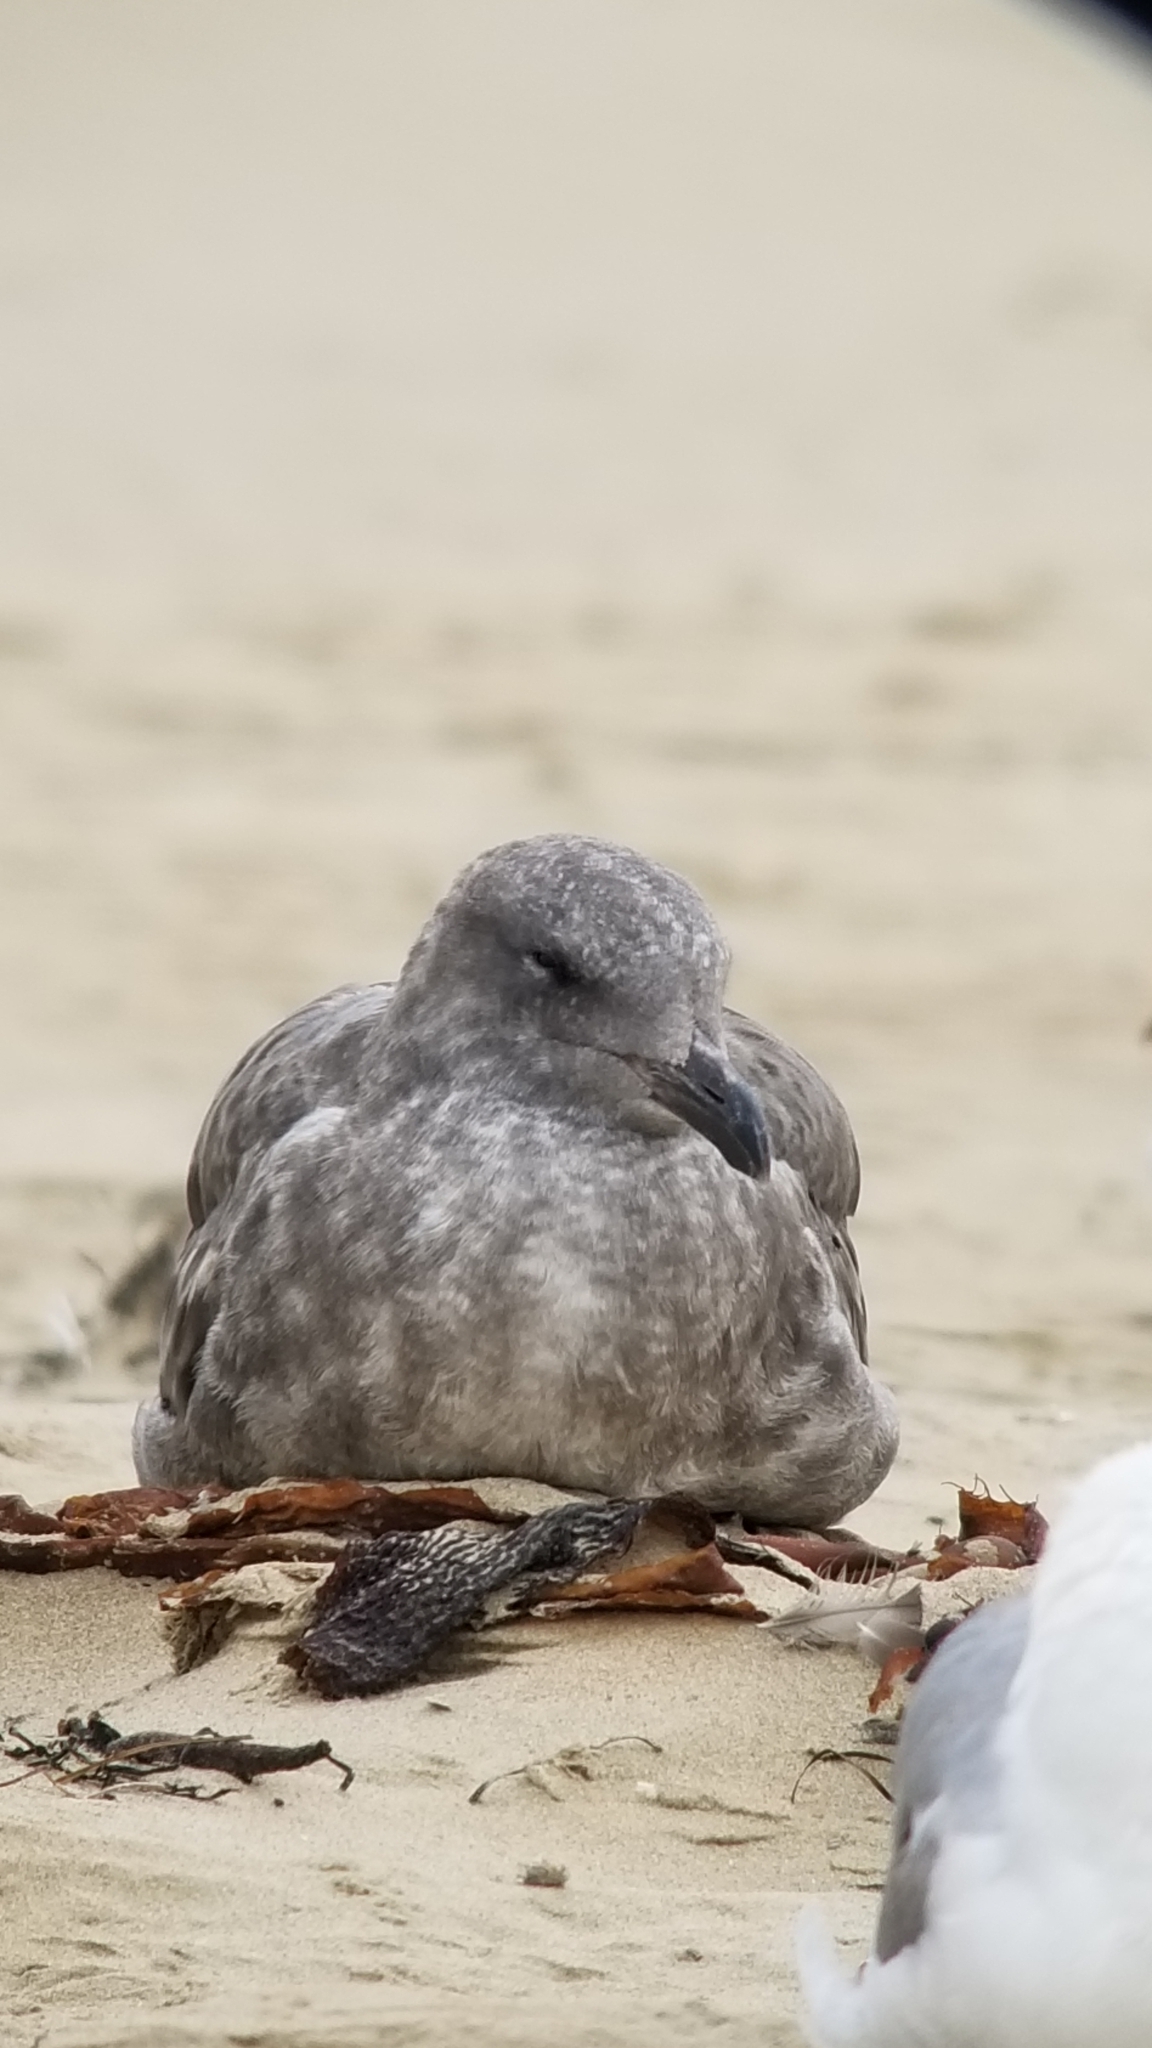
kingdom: Animalia
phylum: Chordata
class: Aves
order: Charadriiformes
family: Laridae
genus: Larus
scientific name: Larus occidentalis
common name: Western gull
